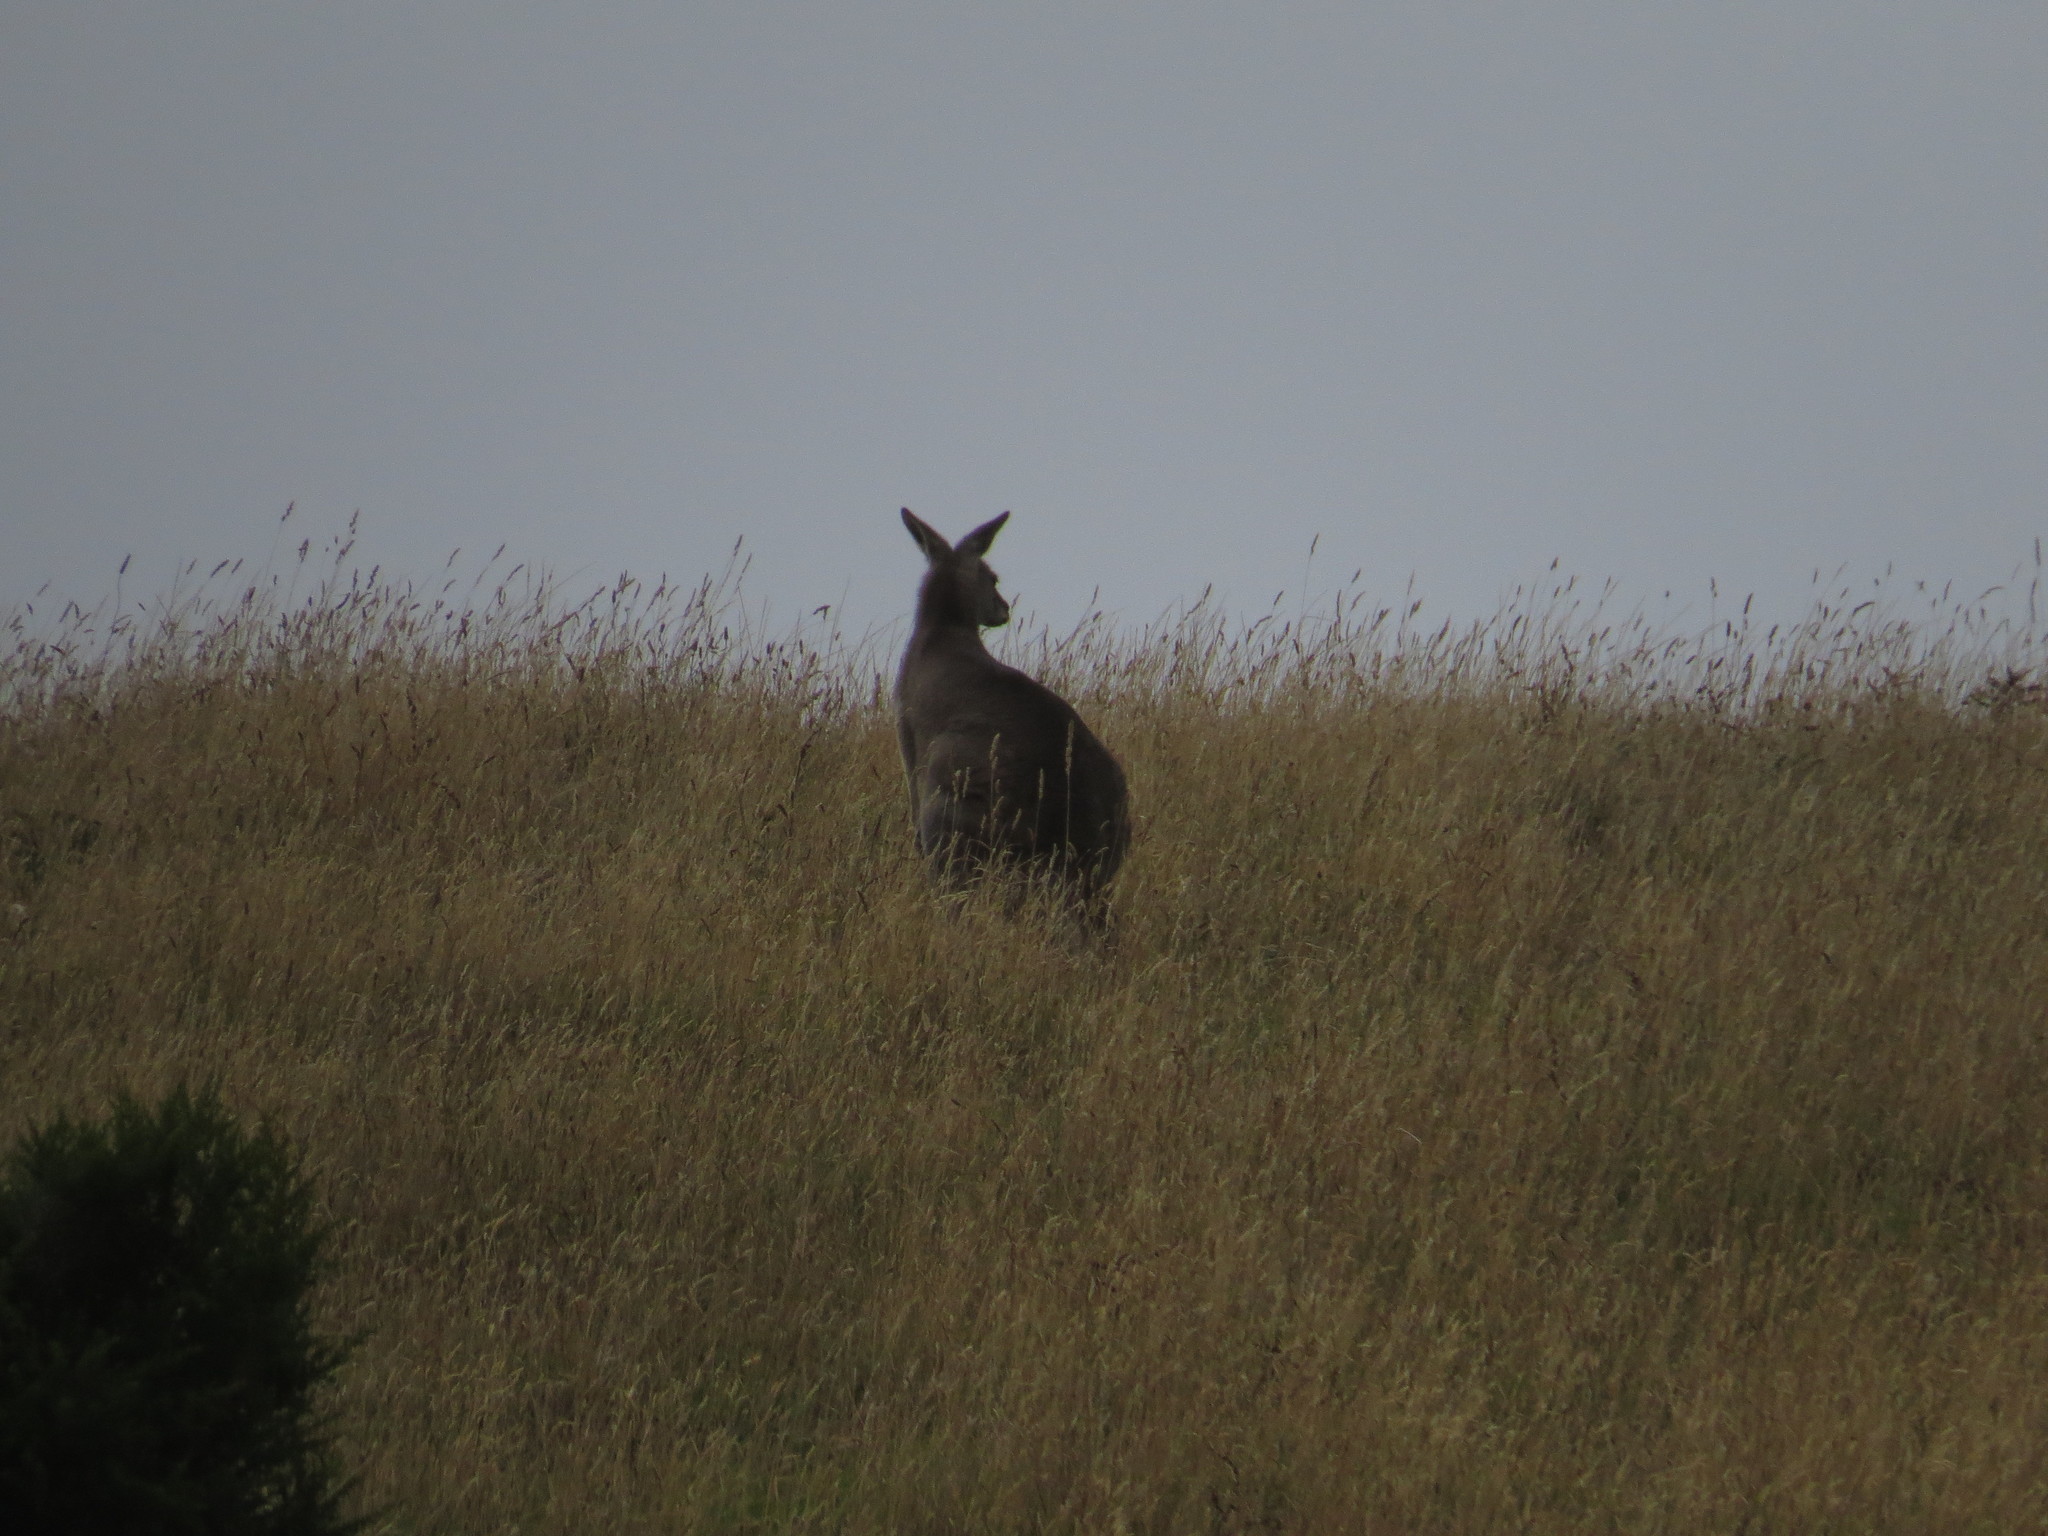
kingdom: Animalia
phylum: Chordata
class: Mammalia
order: Diprotodontia
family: Macropodidae
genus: Macropus
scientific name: Macropus giganteus
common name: Eastern grey kangaroo
